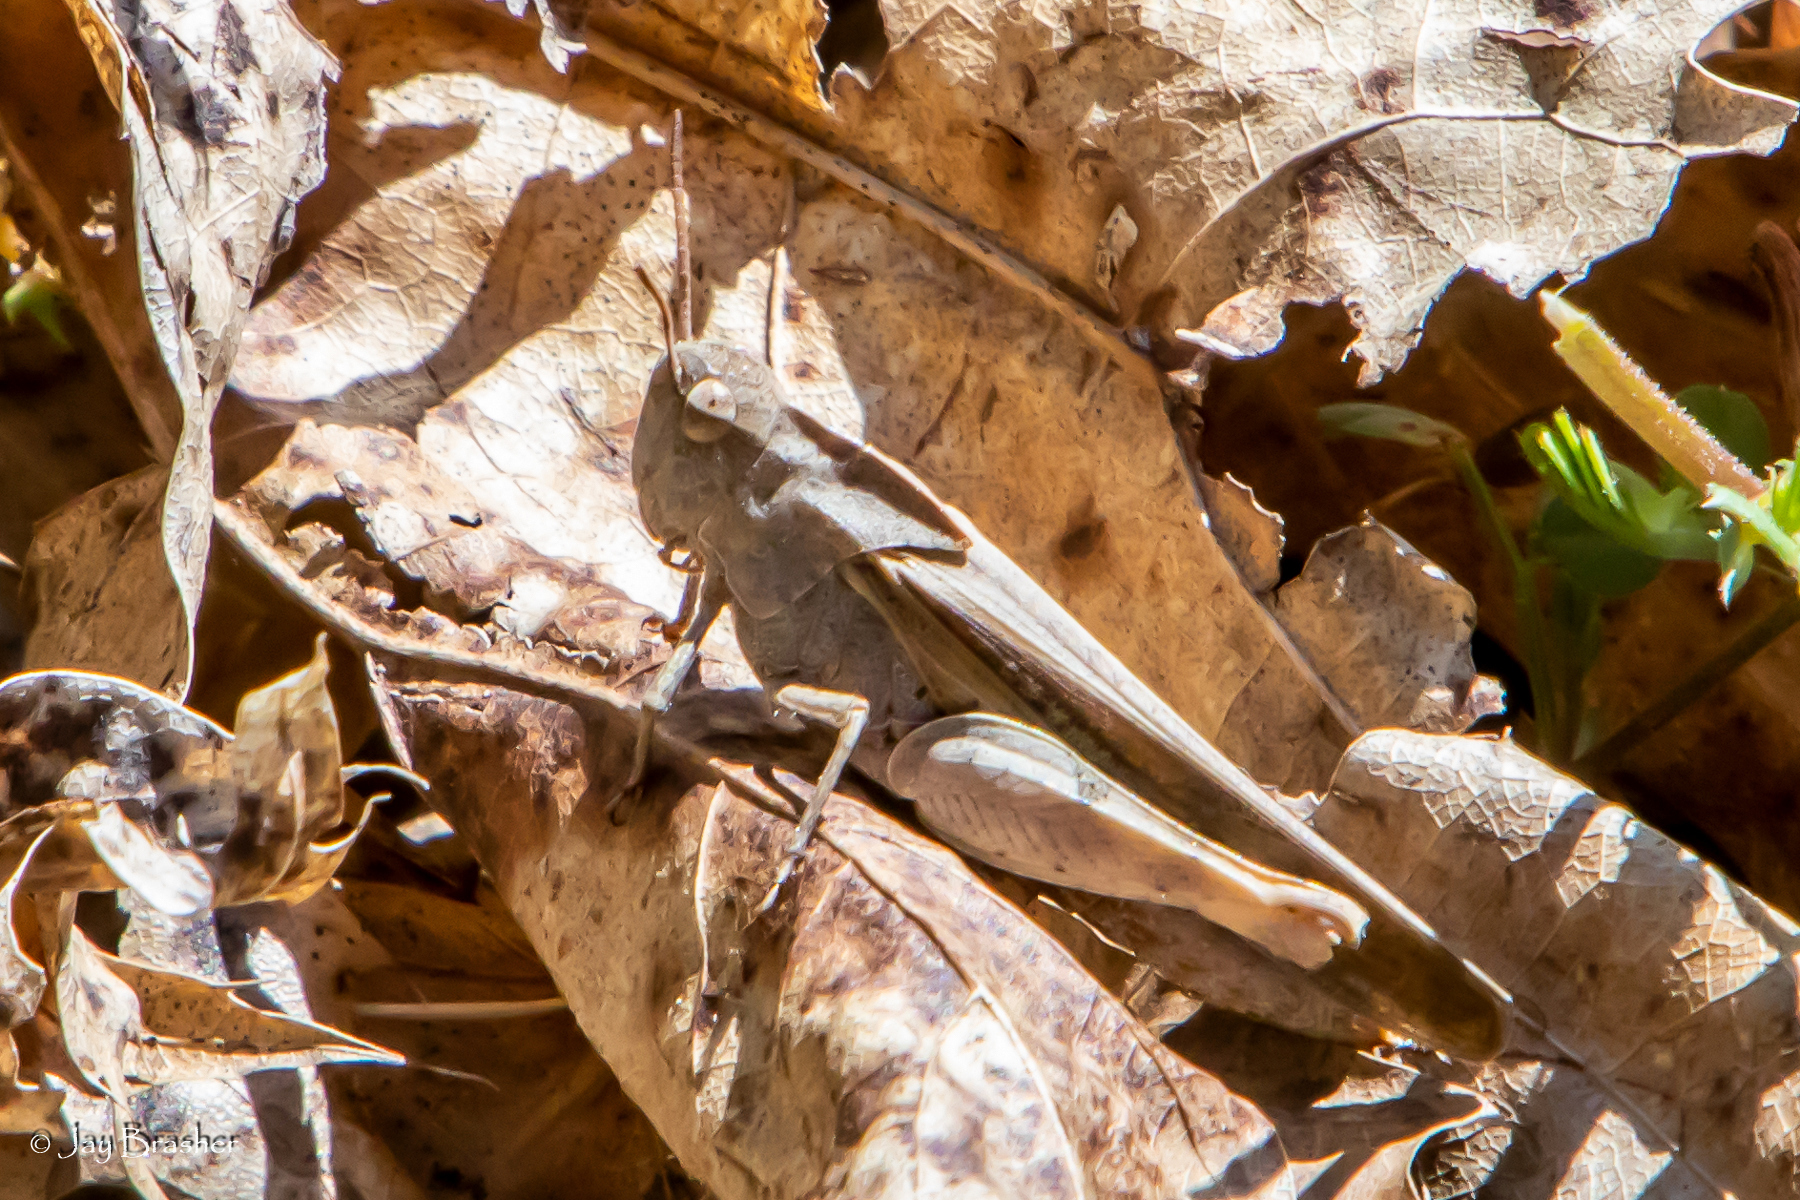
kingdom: Animalia
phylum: Arthropoda
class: Insecta
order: Orthoptera
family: Acrididae
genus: Chortophaga
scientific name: Chortophaga viridifasciata
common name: Green-striped grasshopper
